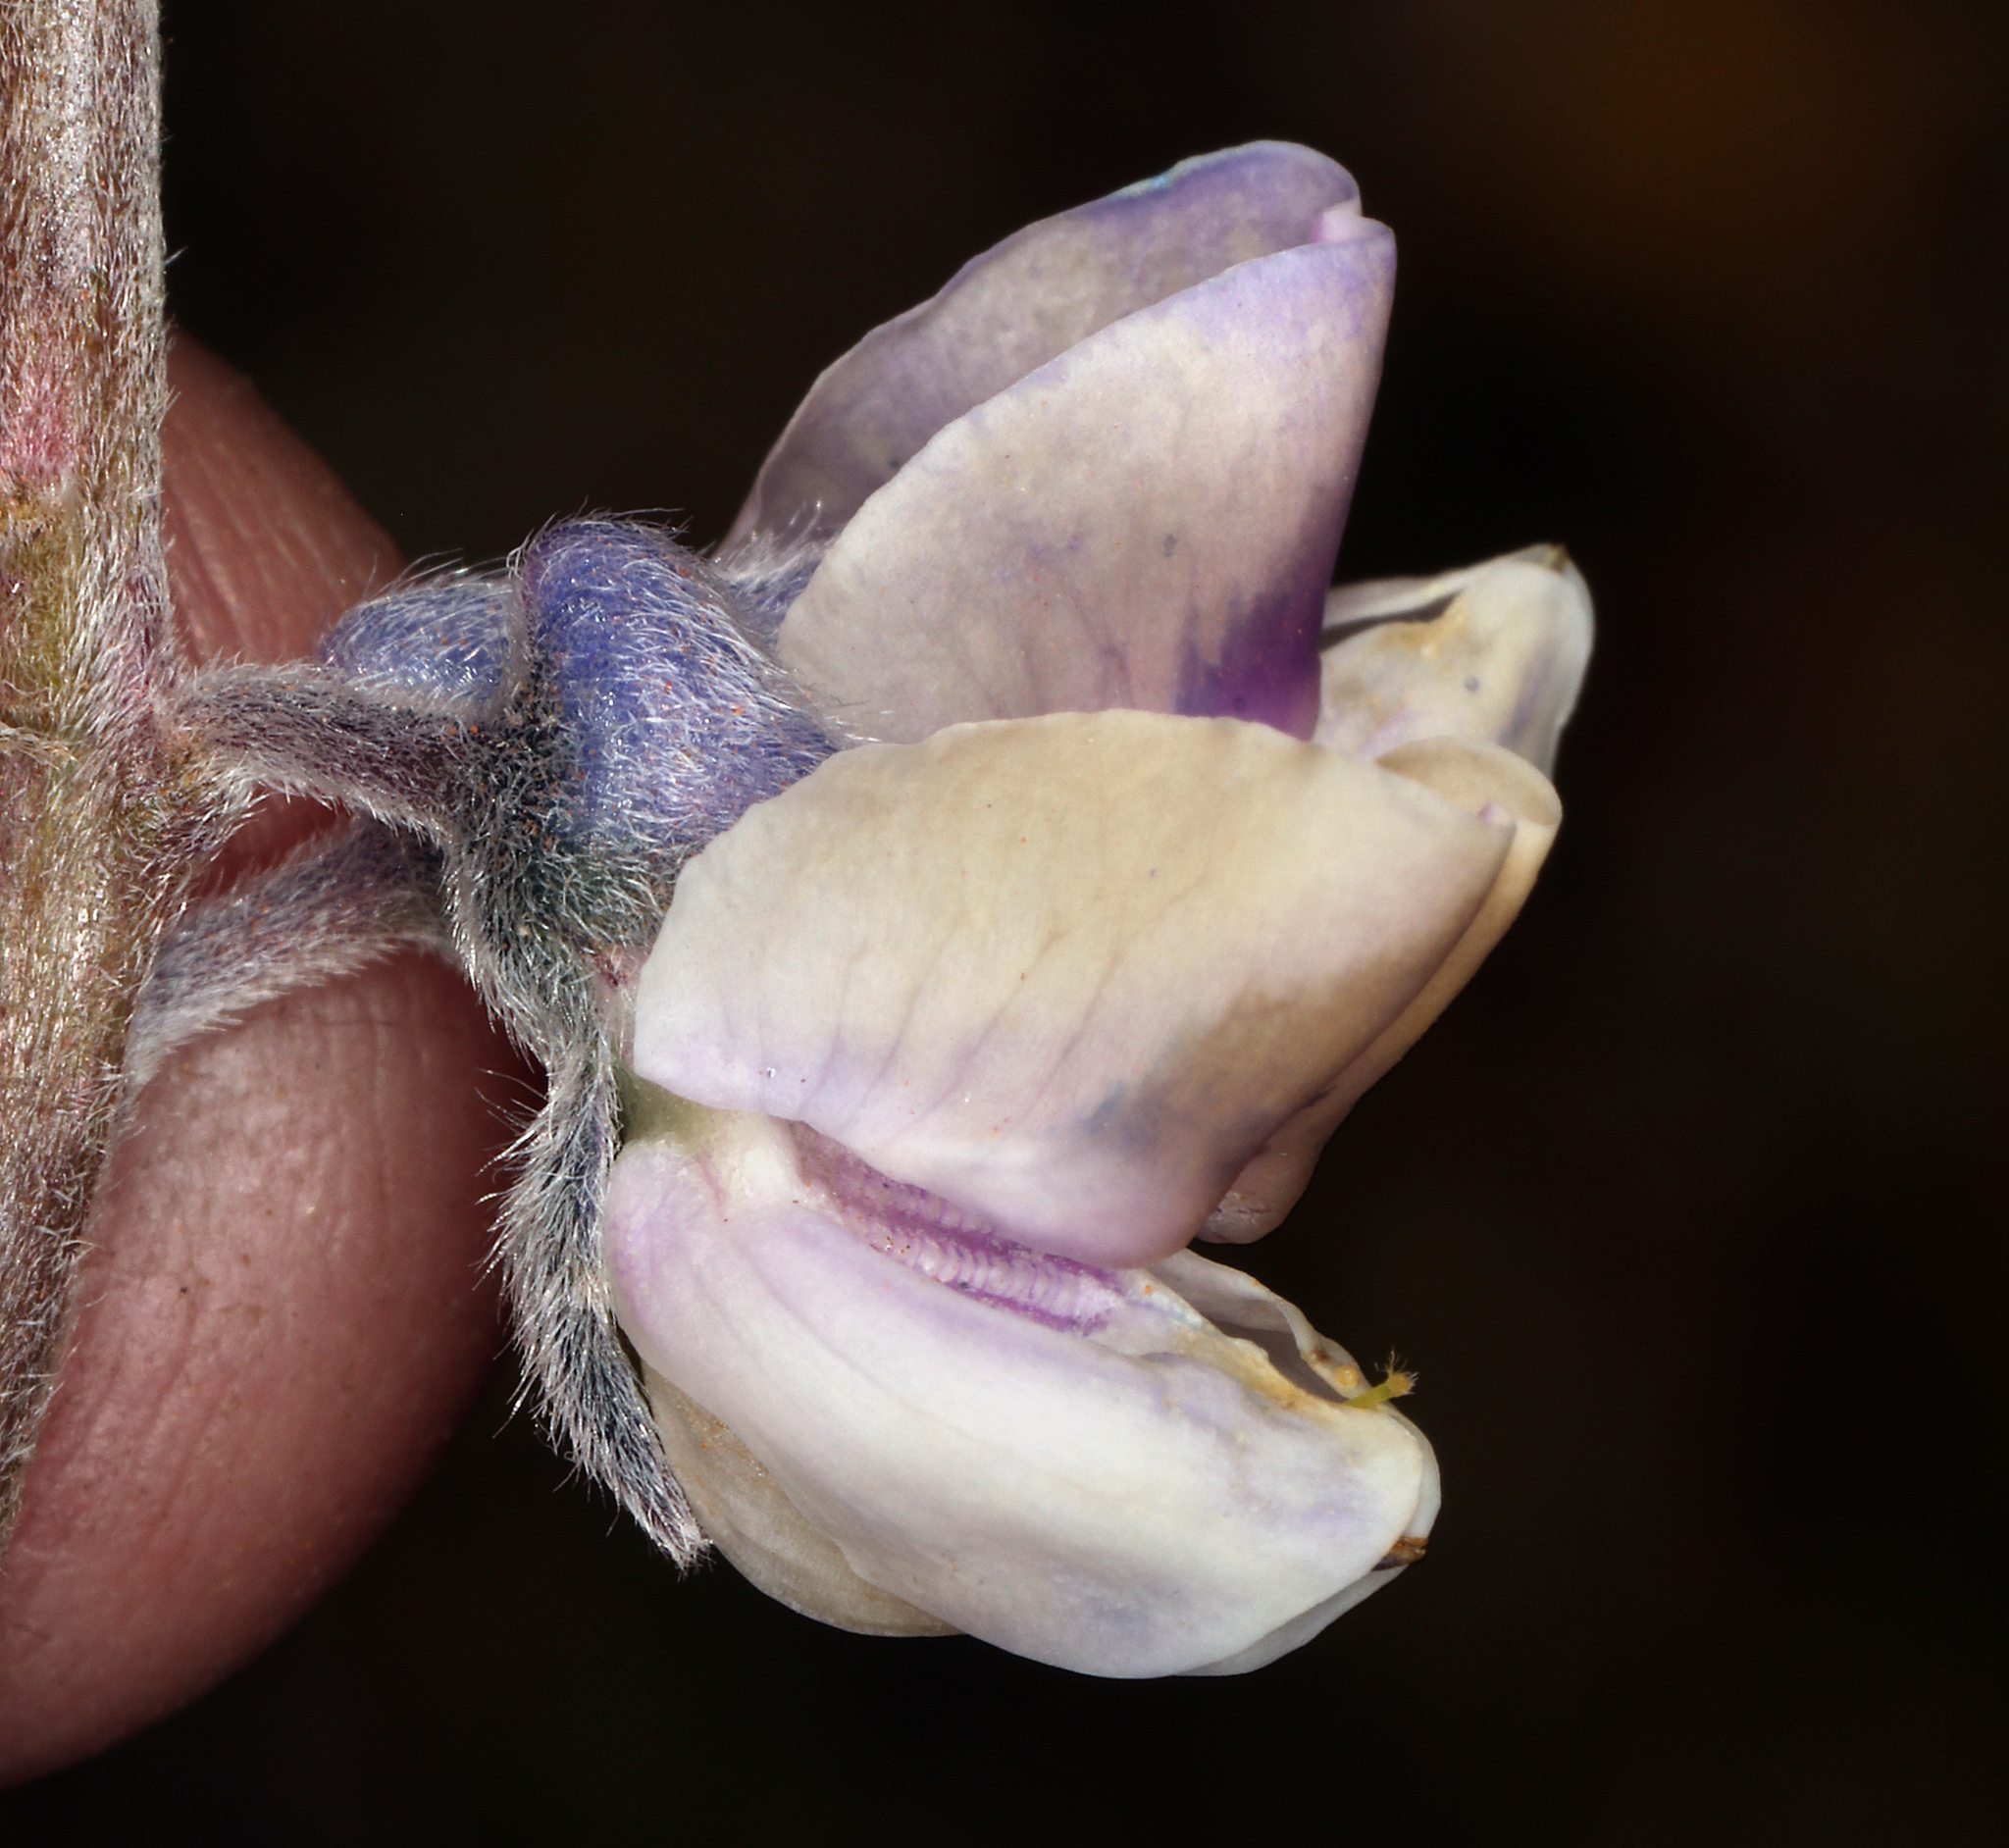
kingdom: Plantae
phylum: Tracheophyta
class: Magnoliopsida
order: Fabales
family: Fabaceae
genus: Lupinus
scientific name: Lupinus argenteus
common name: Silvery lupine
